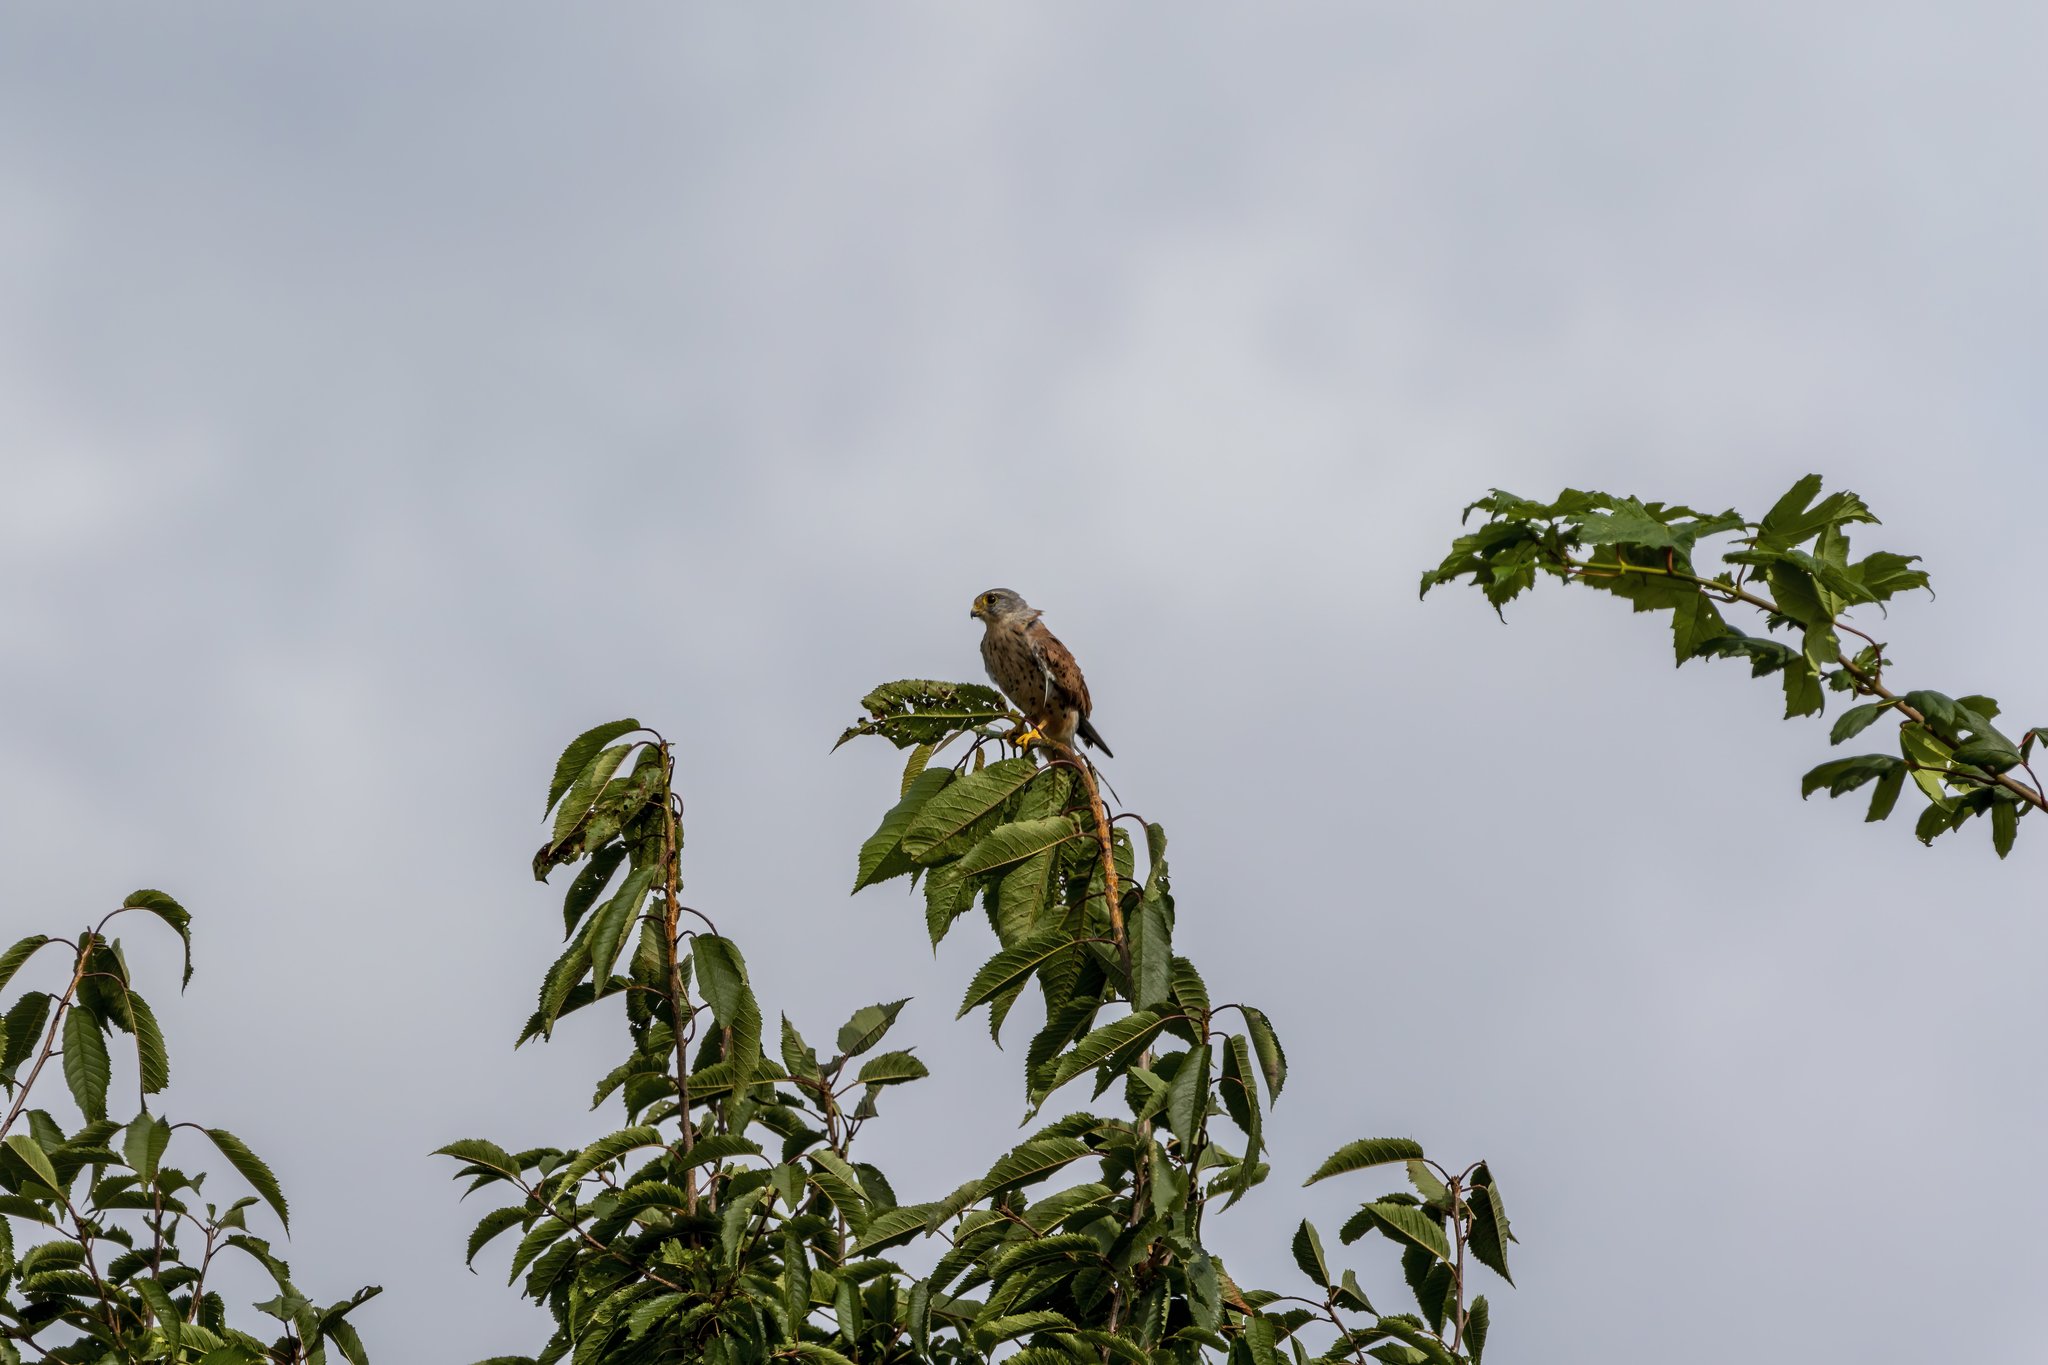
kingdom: Animalia
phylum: Chordata
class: Aves
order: Falconiformes
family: Falconidae
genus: Falco
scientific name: Falco tinnunculus
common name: Common kestrel
